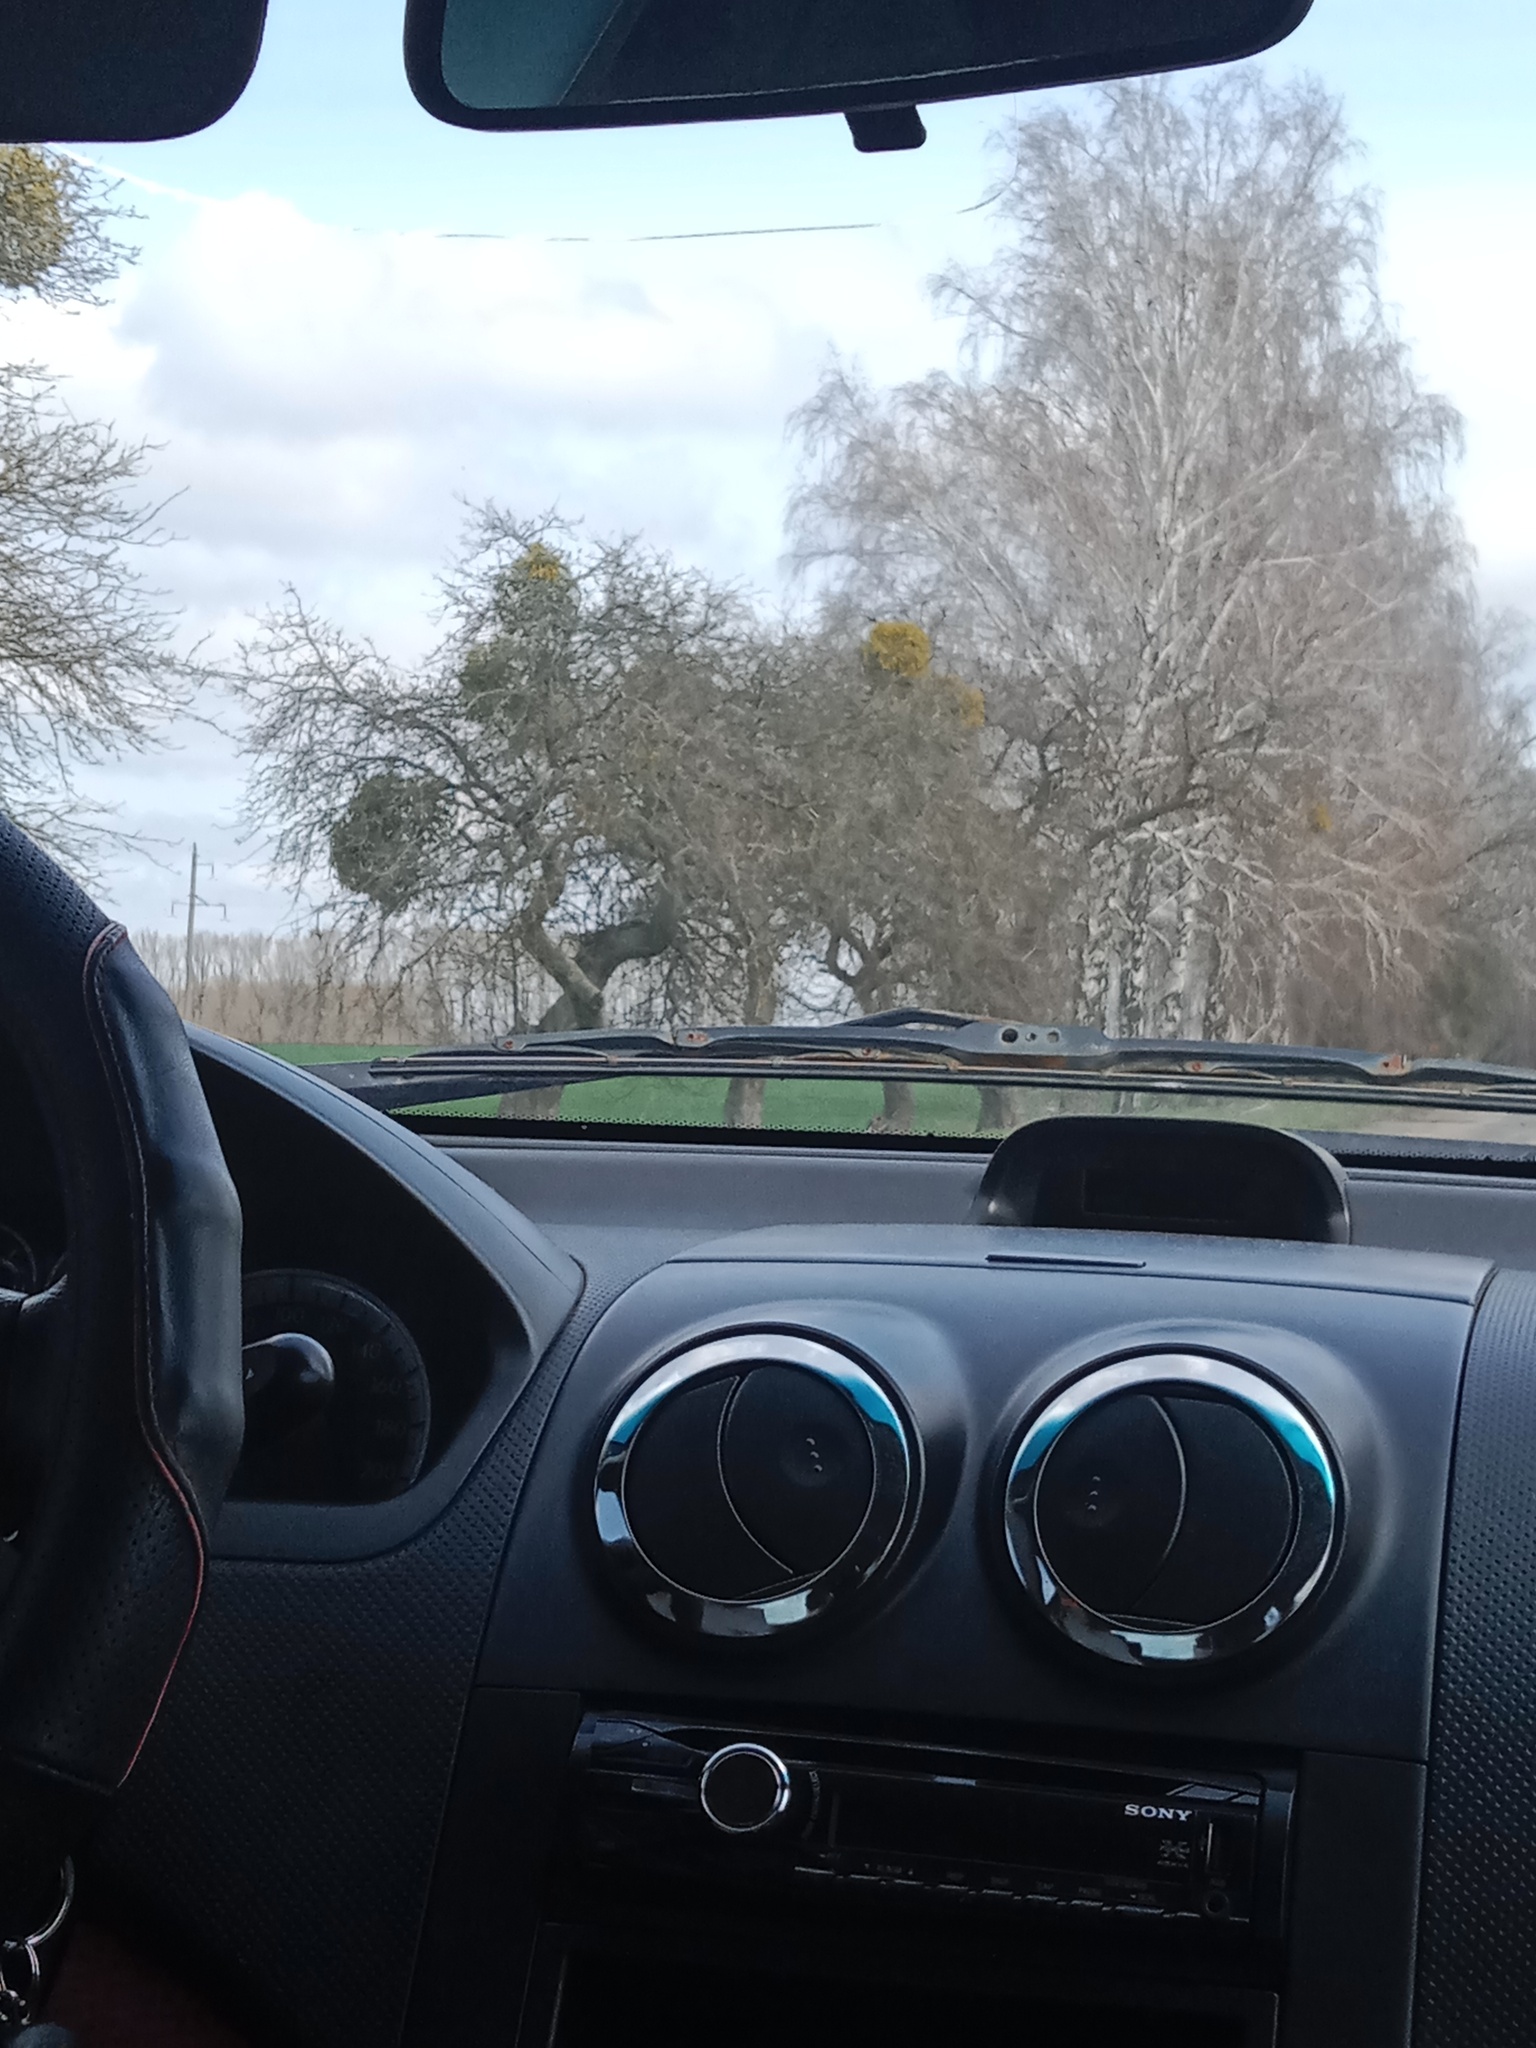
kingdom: Plantae
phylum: Tracheophyta
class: Magnoliopsida
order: Santalales
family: Viscaceae
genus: Viscum
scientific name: Viscum album
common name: Mistletoe
